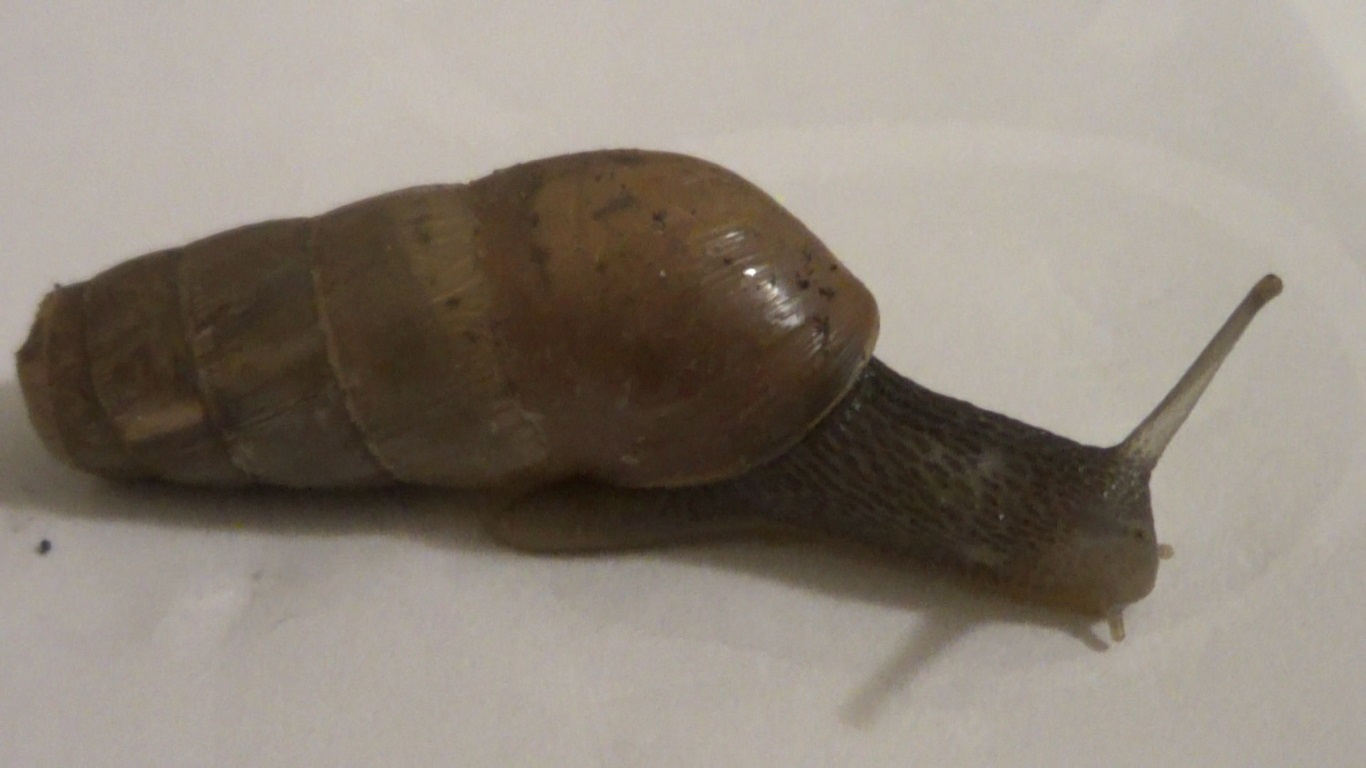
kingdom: Animalia
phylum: Mollusca
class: Gastropoda
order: Stylommatophora
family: Achatinidae
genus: Rumina
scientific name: Rumina decollata
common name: Decollate snail
